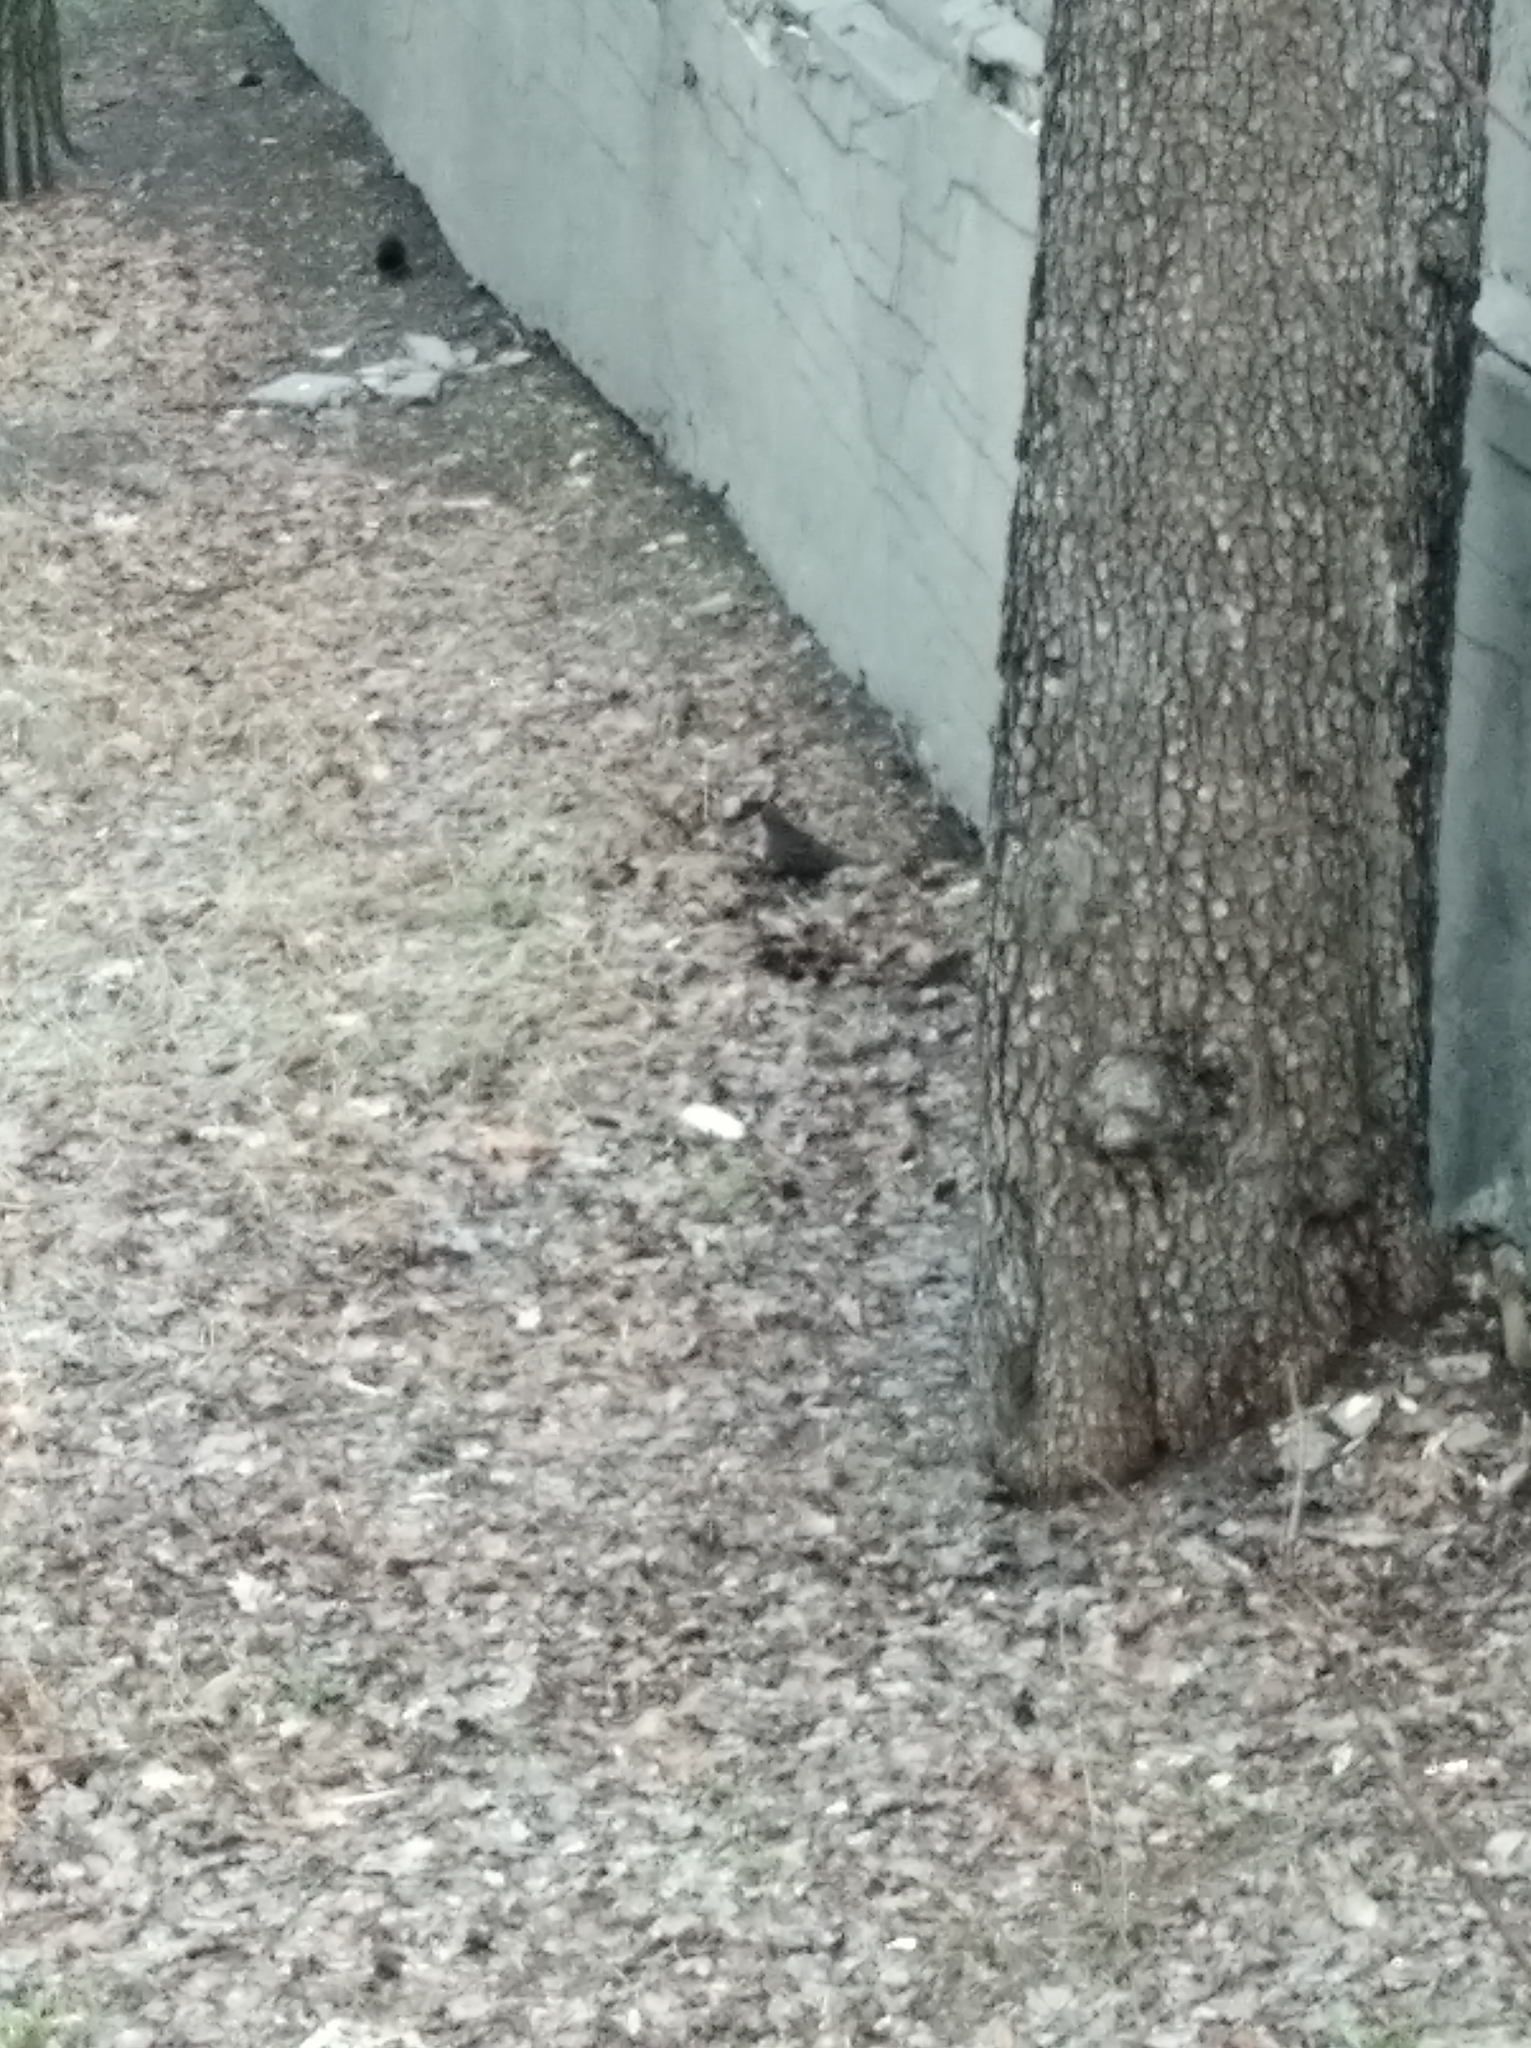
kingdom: Animalia
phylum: Chordata
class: Aves
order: Passeriformes
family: Turdidae
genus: Turdus
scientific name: Turdus merula
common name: Common blackbird
